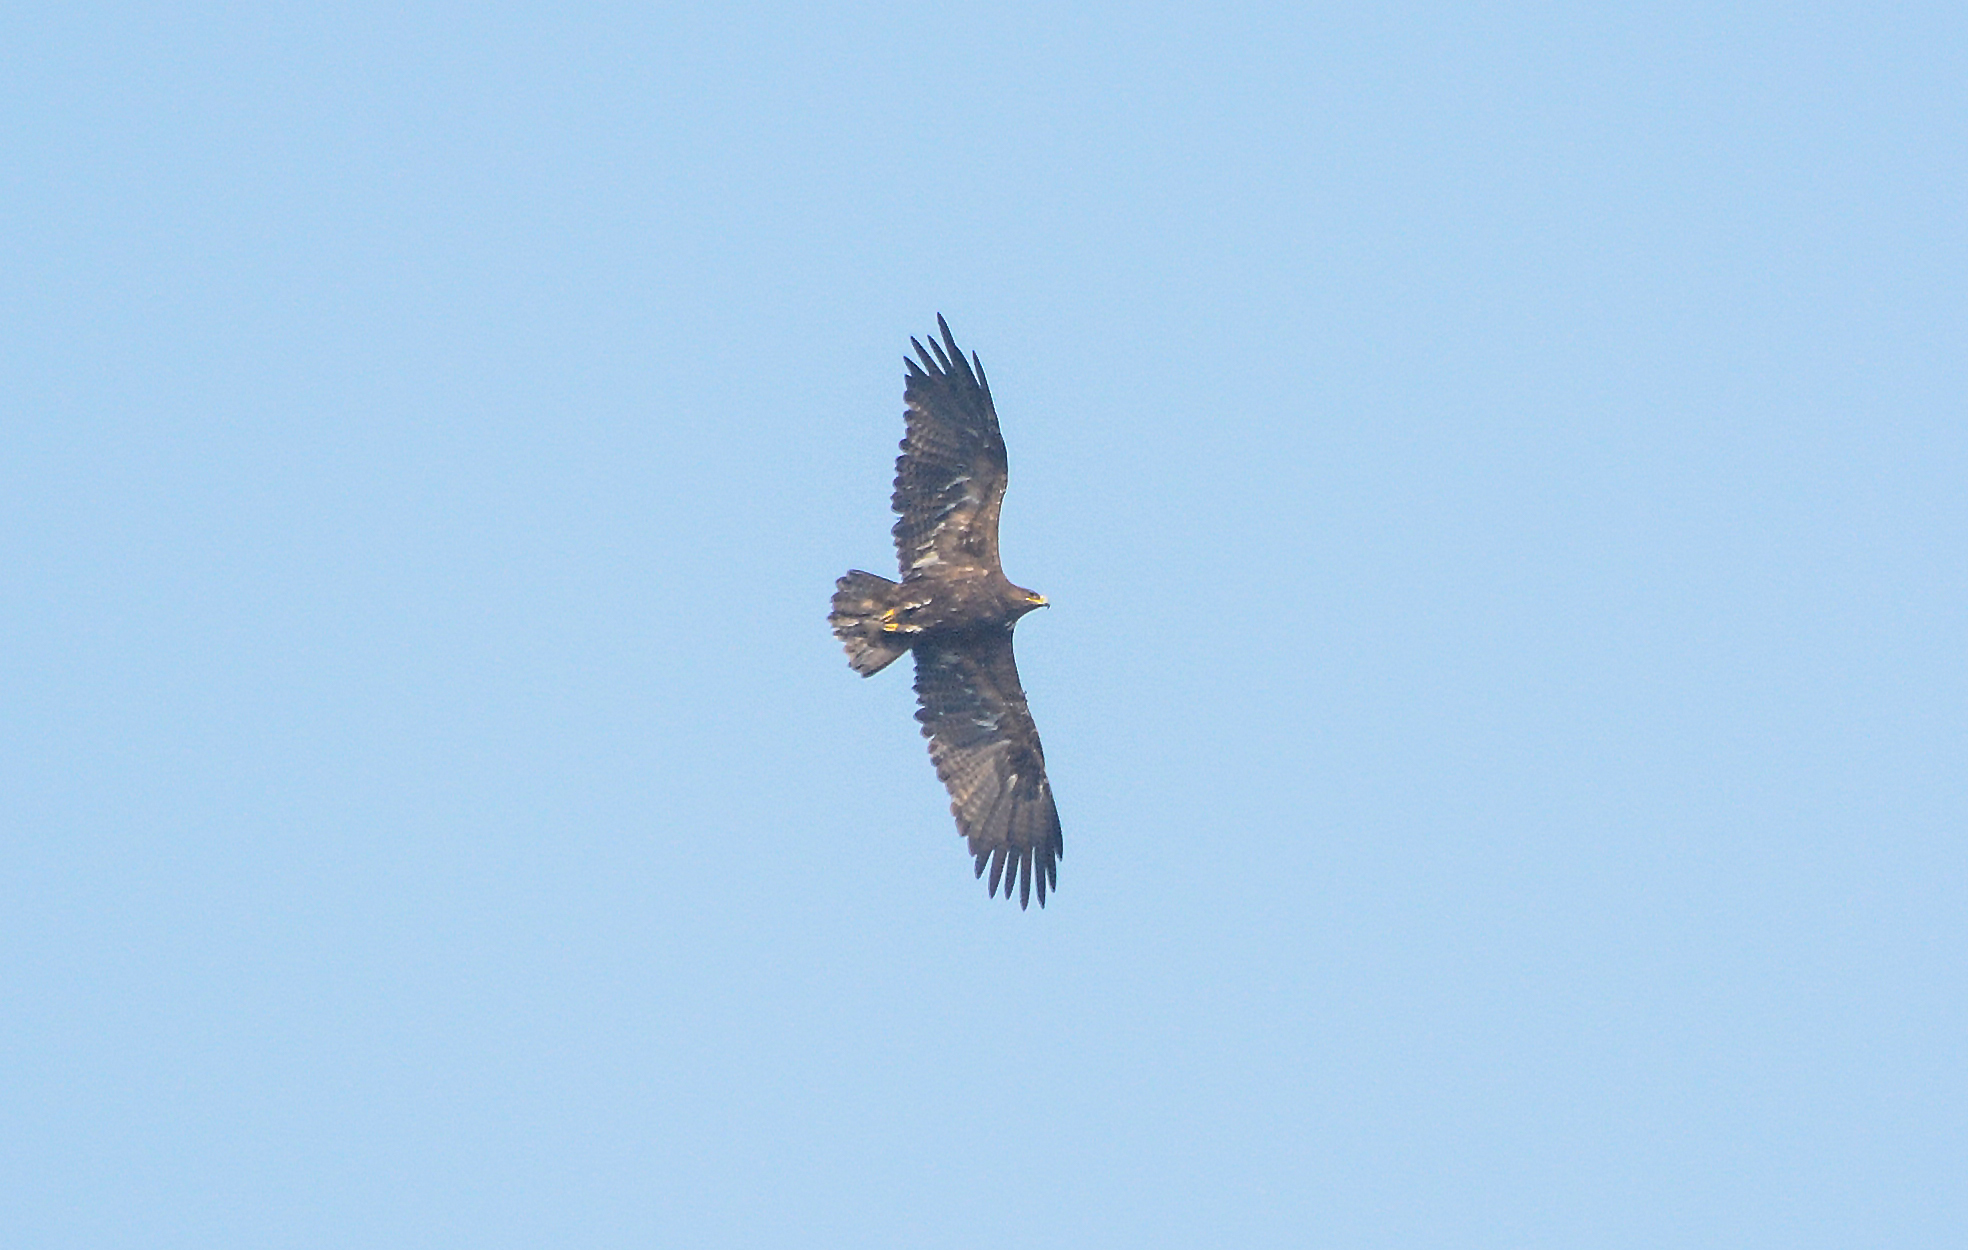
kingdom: Animalia
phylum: Chordata
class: Aves
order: Accipitriformes
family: Accipitridae
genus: Aquila
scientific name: Aquila nipalensis
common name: Steppe eagle
